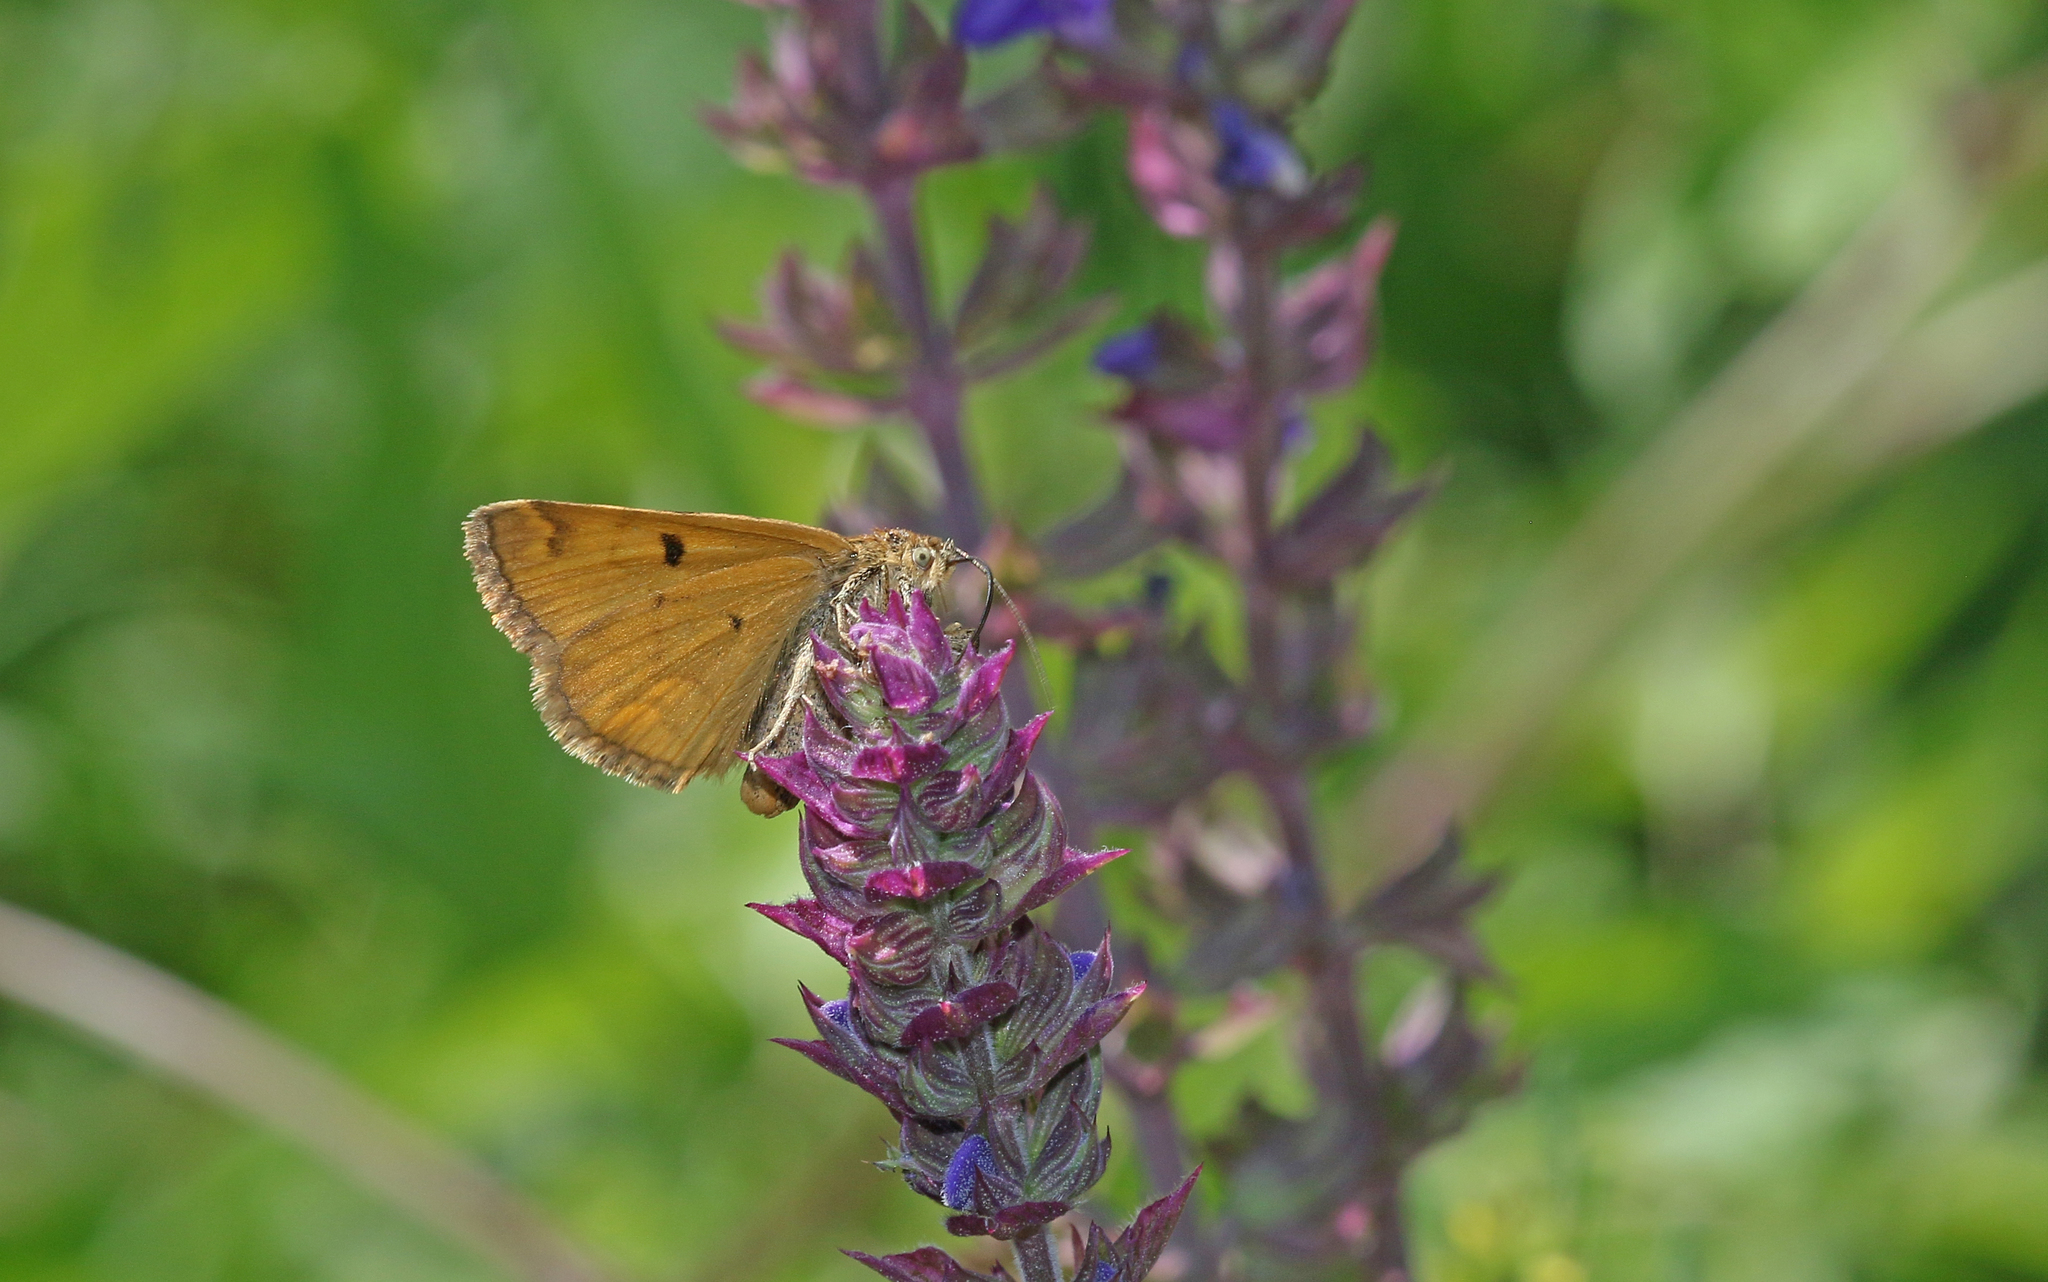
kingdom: Animalia
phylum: Arthropoda
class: Insecta
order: Lepidoptera
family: Erebidae
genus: Euclidia
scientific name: Euclidia glyphica
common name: Burnet companion
